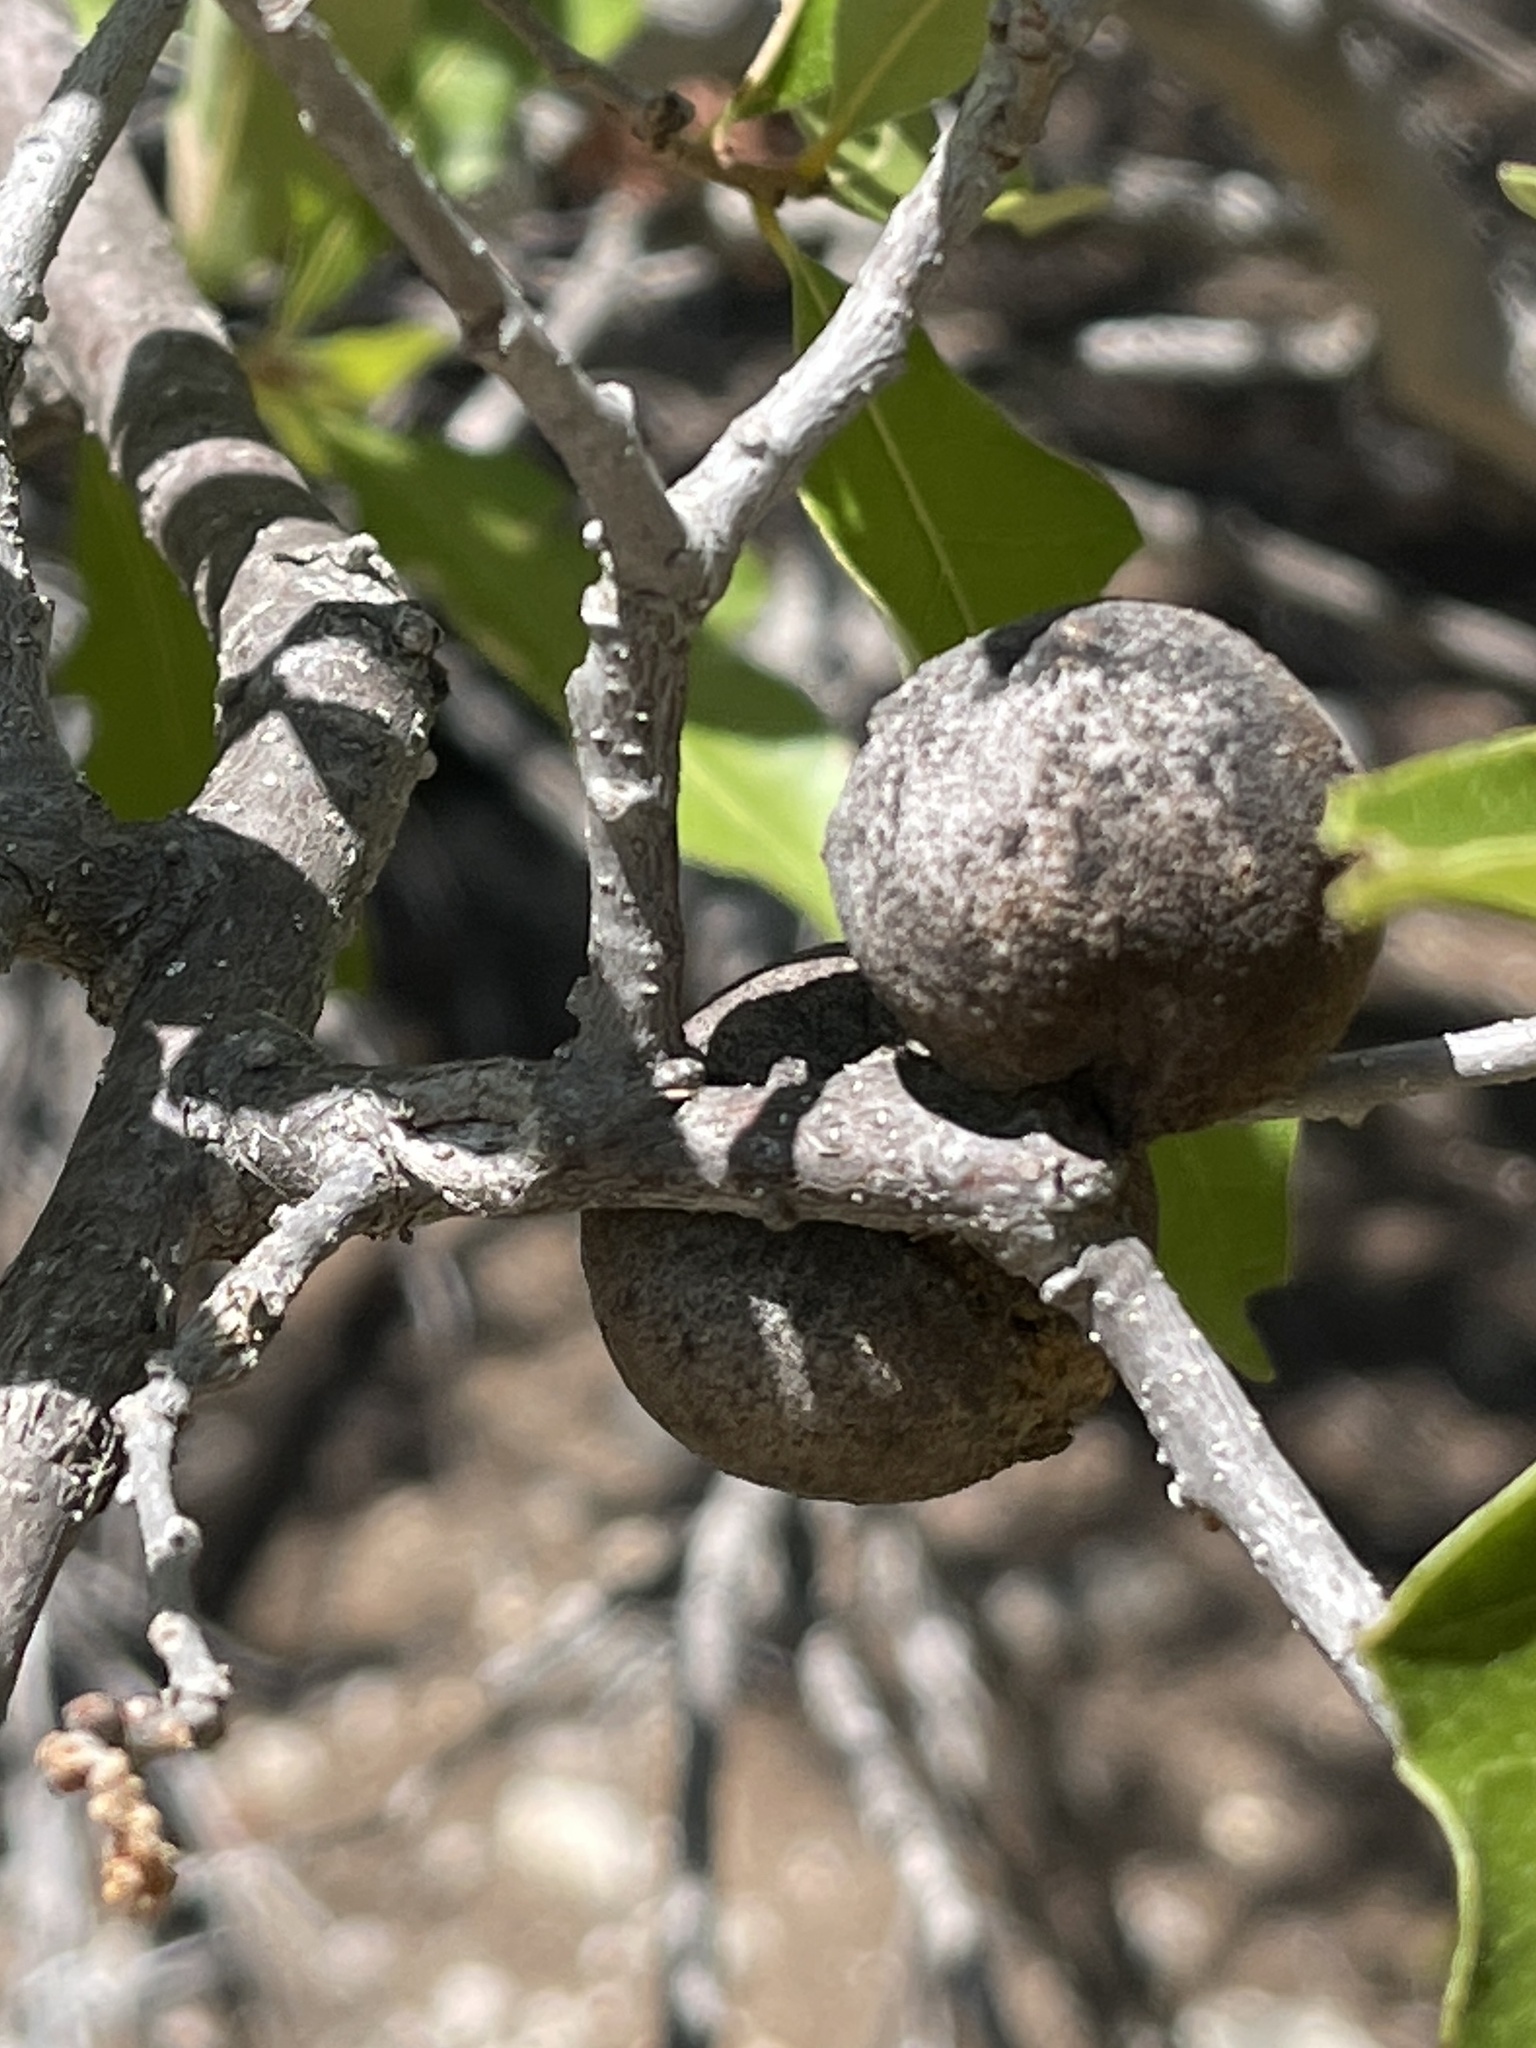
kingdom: Animalia
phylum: Arthropoda
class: Insecta
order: Hymenoptera
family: Cynipidae
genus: Disholcaspis
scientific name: Disholcaspis
